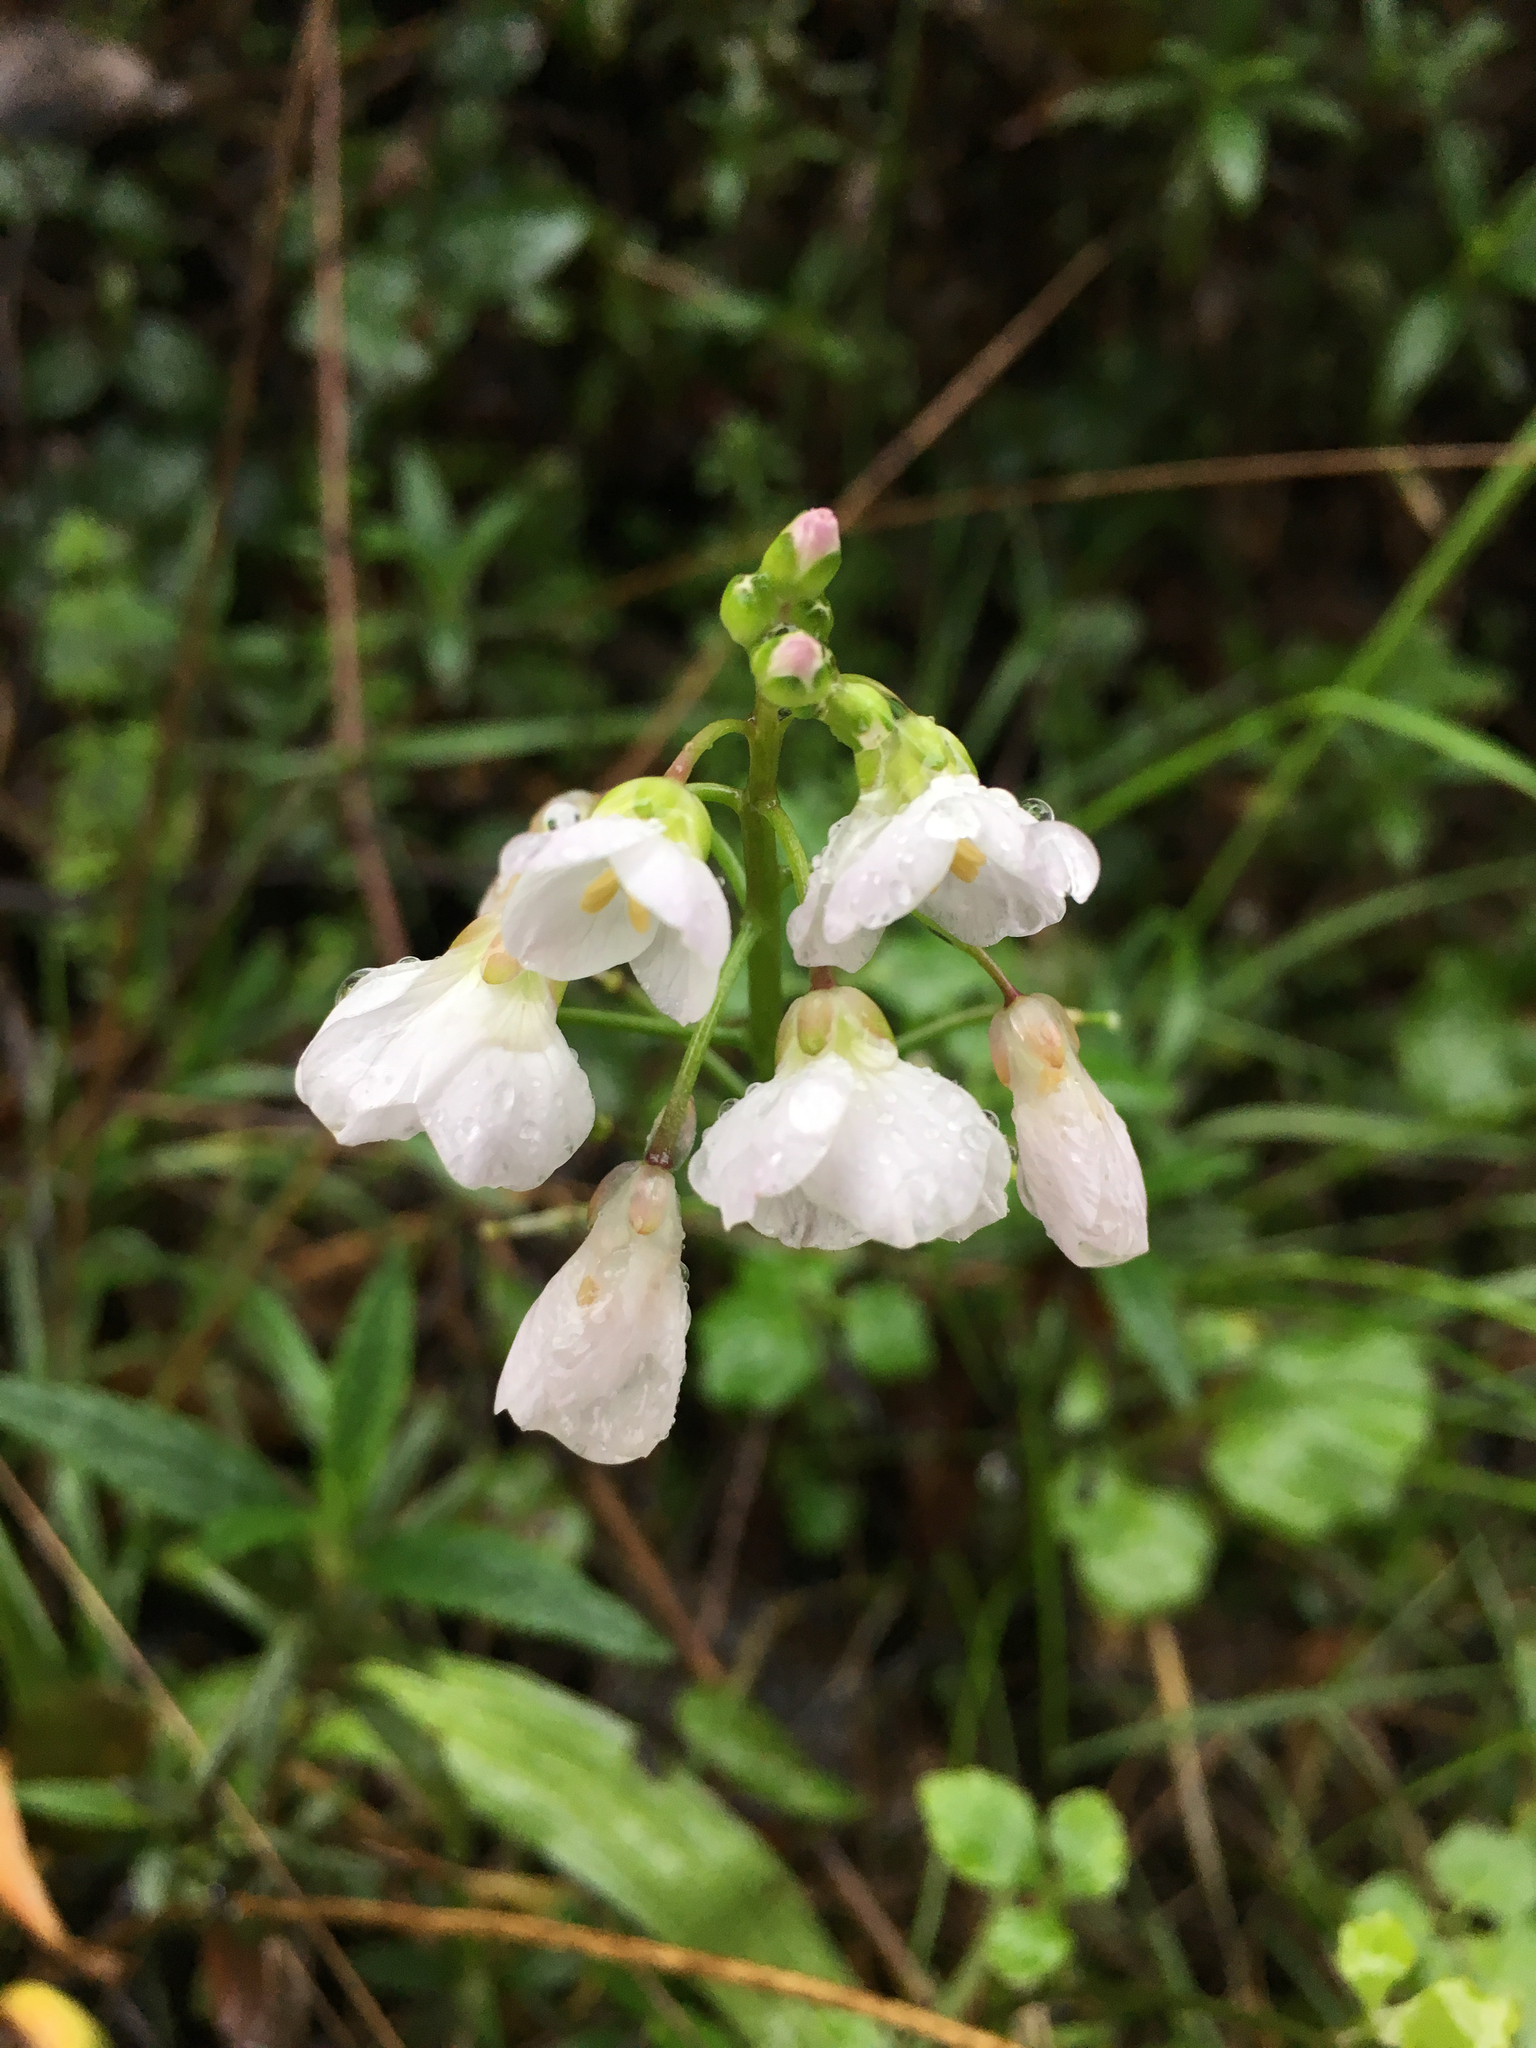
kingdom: Plantae
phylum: Tracheophyta
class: Magnoliopsida
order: Brassicales
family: Brassicaceae
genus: Cardamine
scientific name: Cardamine californica
